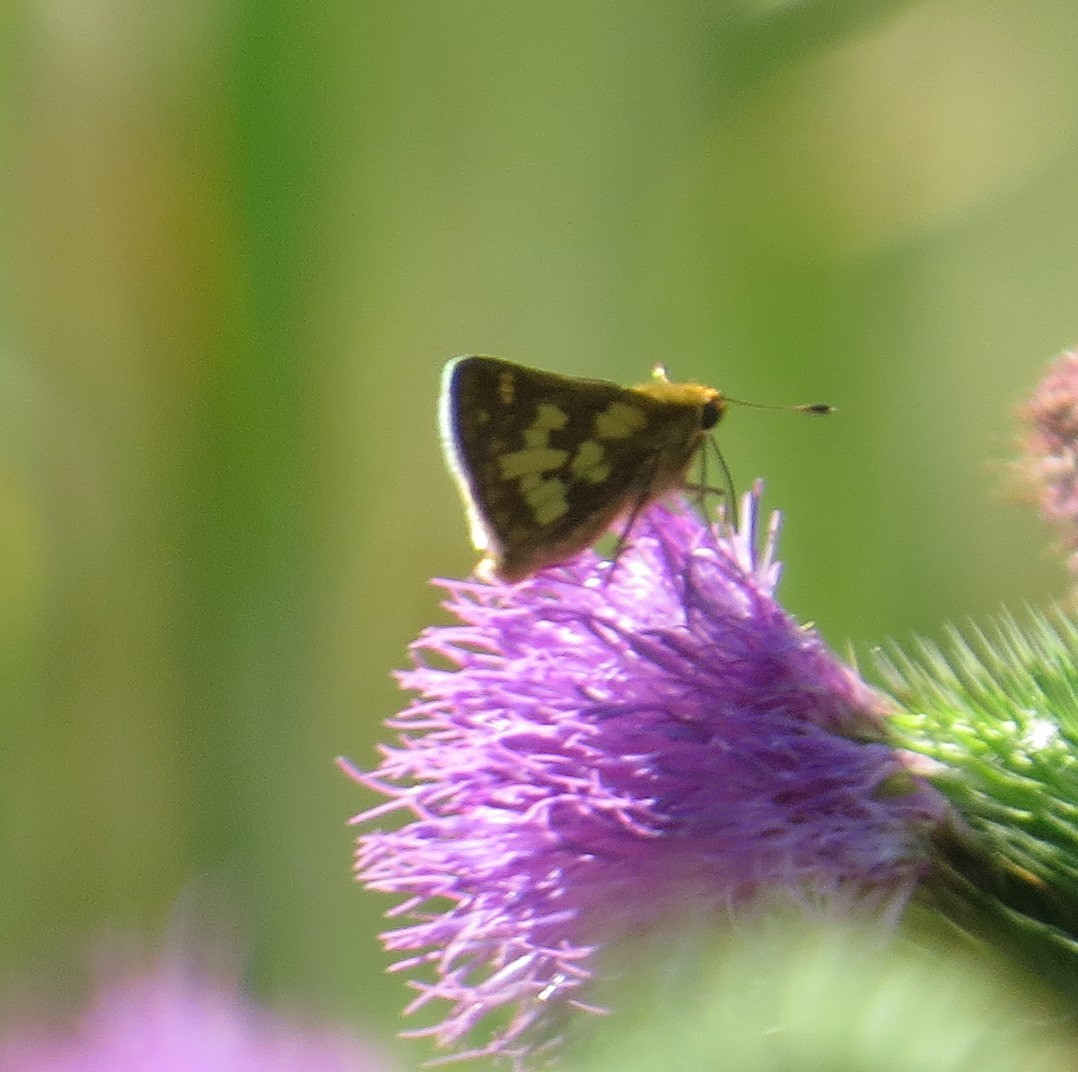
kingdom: Animalia
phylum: Arthropoda
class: Insecta
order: Lepidoptera
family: Hesperiidae
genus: Polites
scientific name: Polites coras
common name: Peck's skipper
